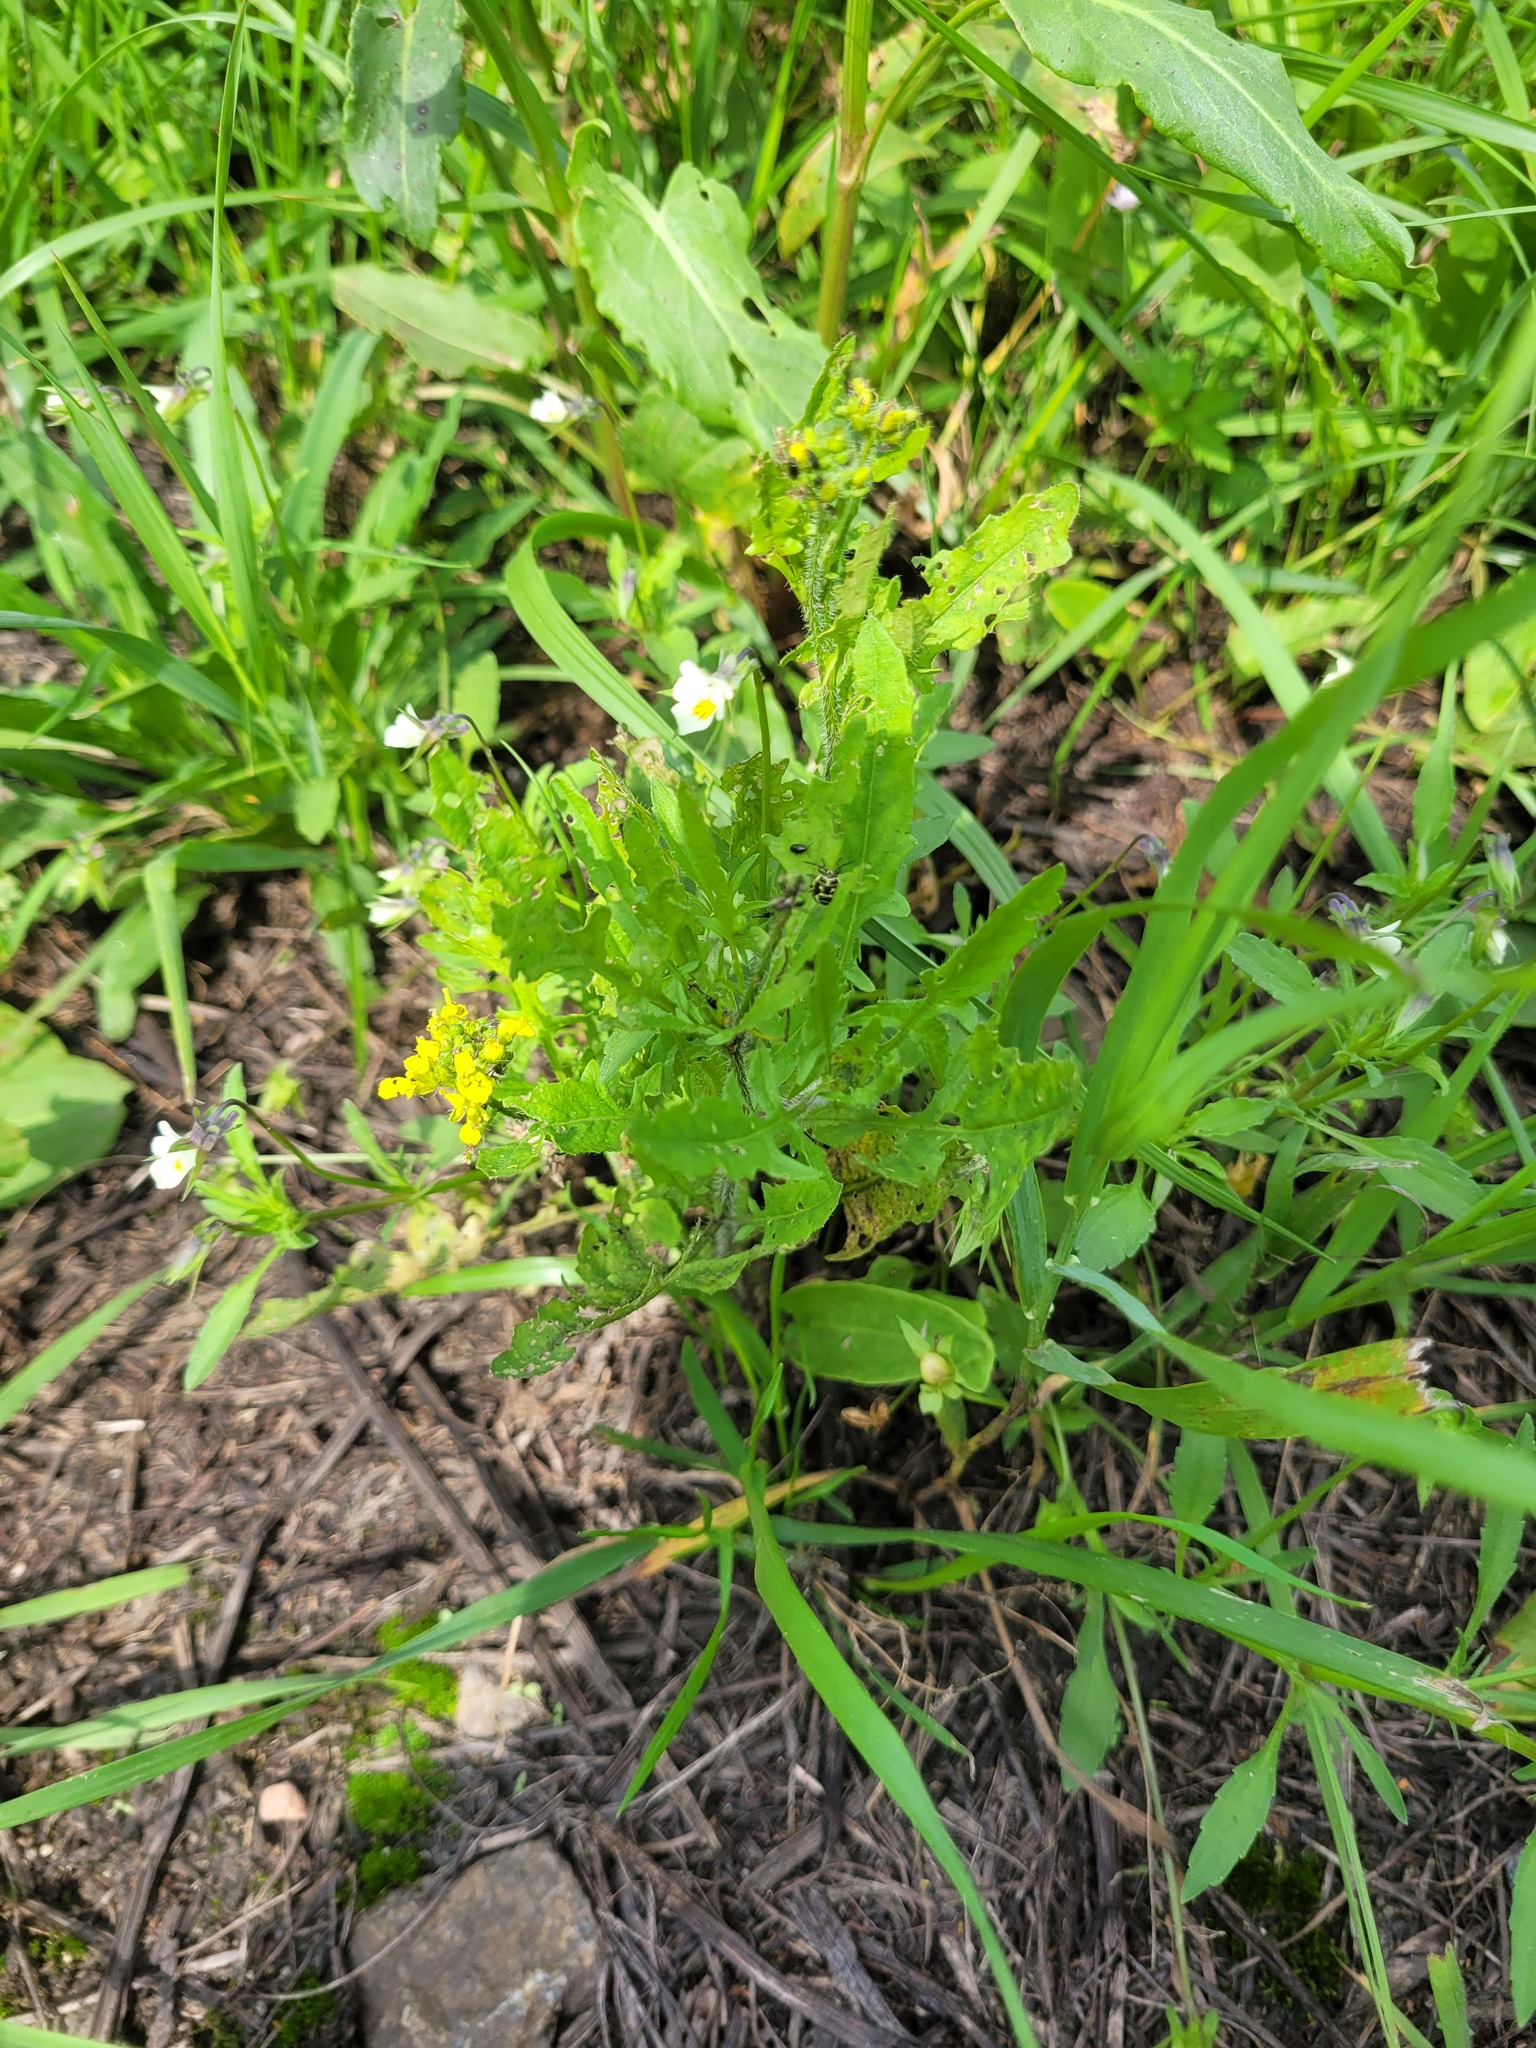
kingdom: Plantae
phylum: Tracheophyta
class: Magnoliopsida
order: Brassicales
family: Brassicaceae
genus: Sisymbrium
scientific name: Sisymbrium loeselii
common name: False london-rocket
